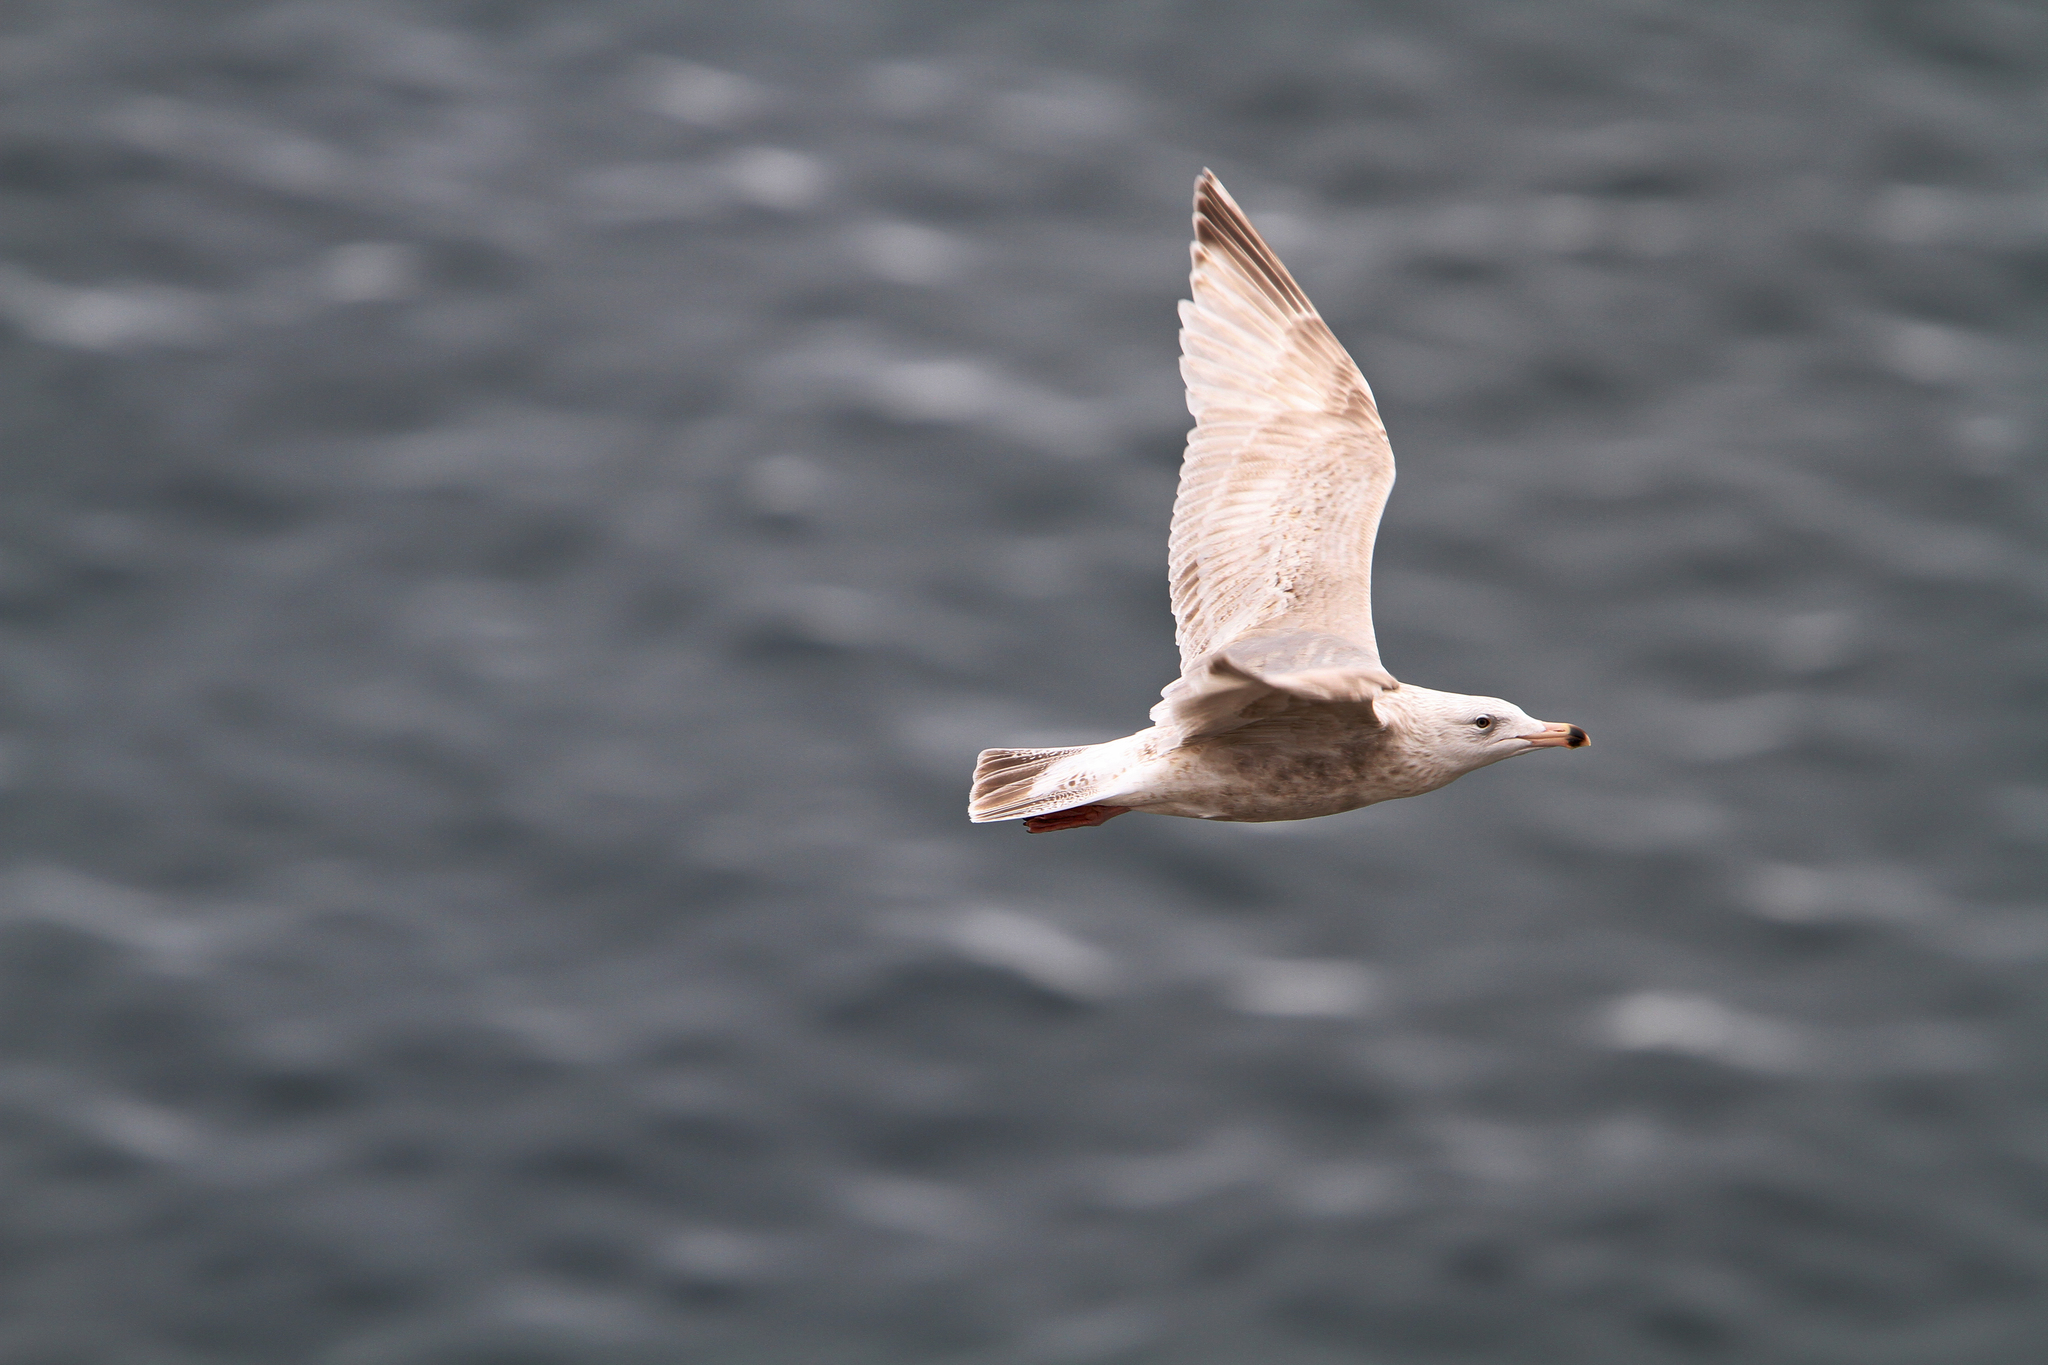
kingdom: Animalia
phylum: Chordata
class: Aves
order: Charadriiformes
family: Laridae
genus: Larus
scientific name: Larus argentatus
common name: Herring gull
